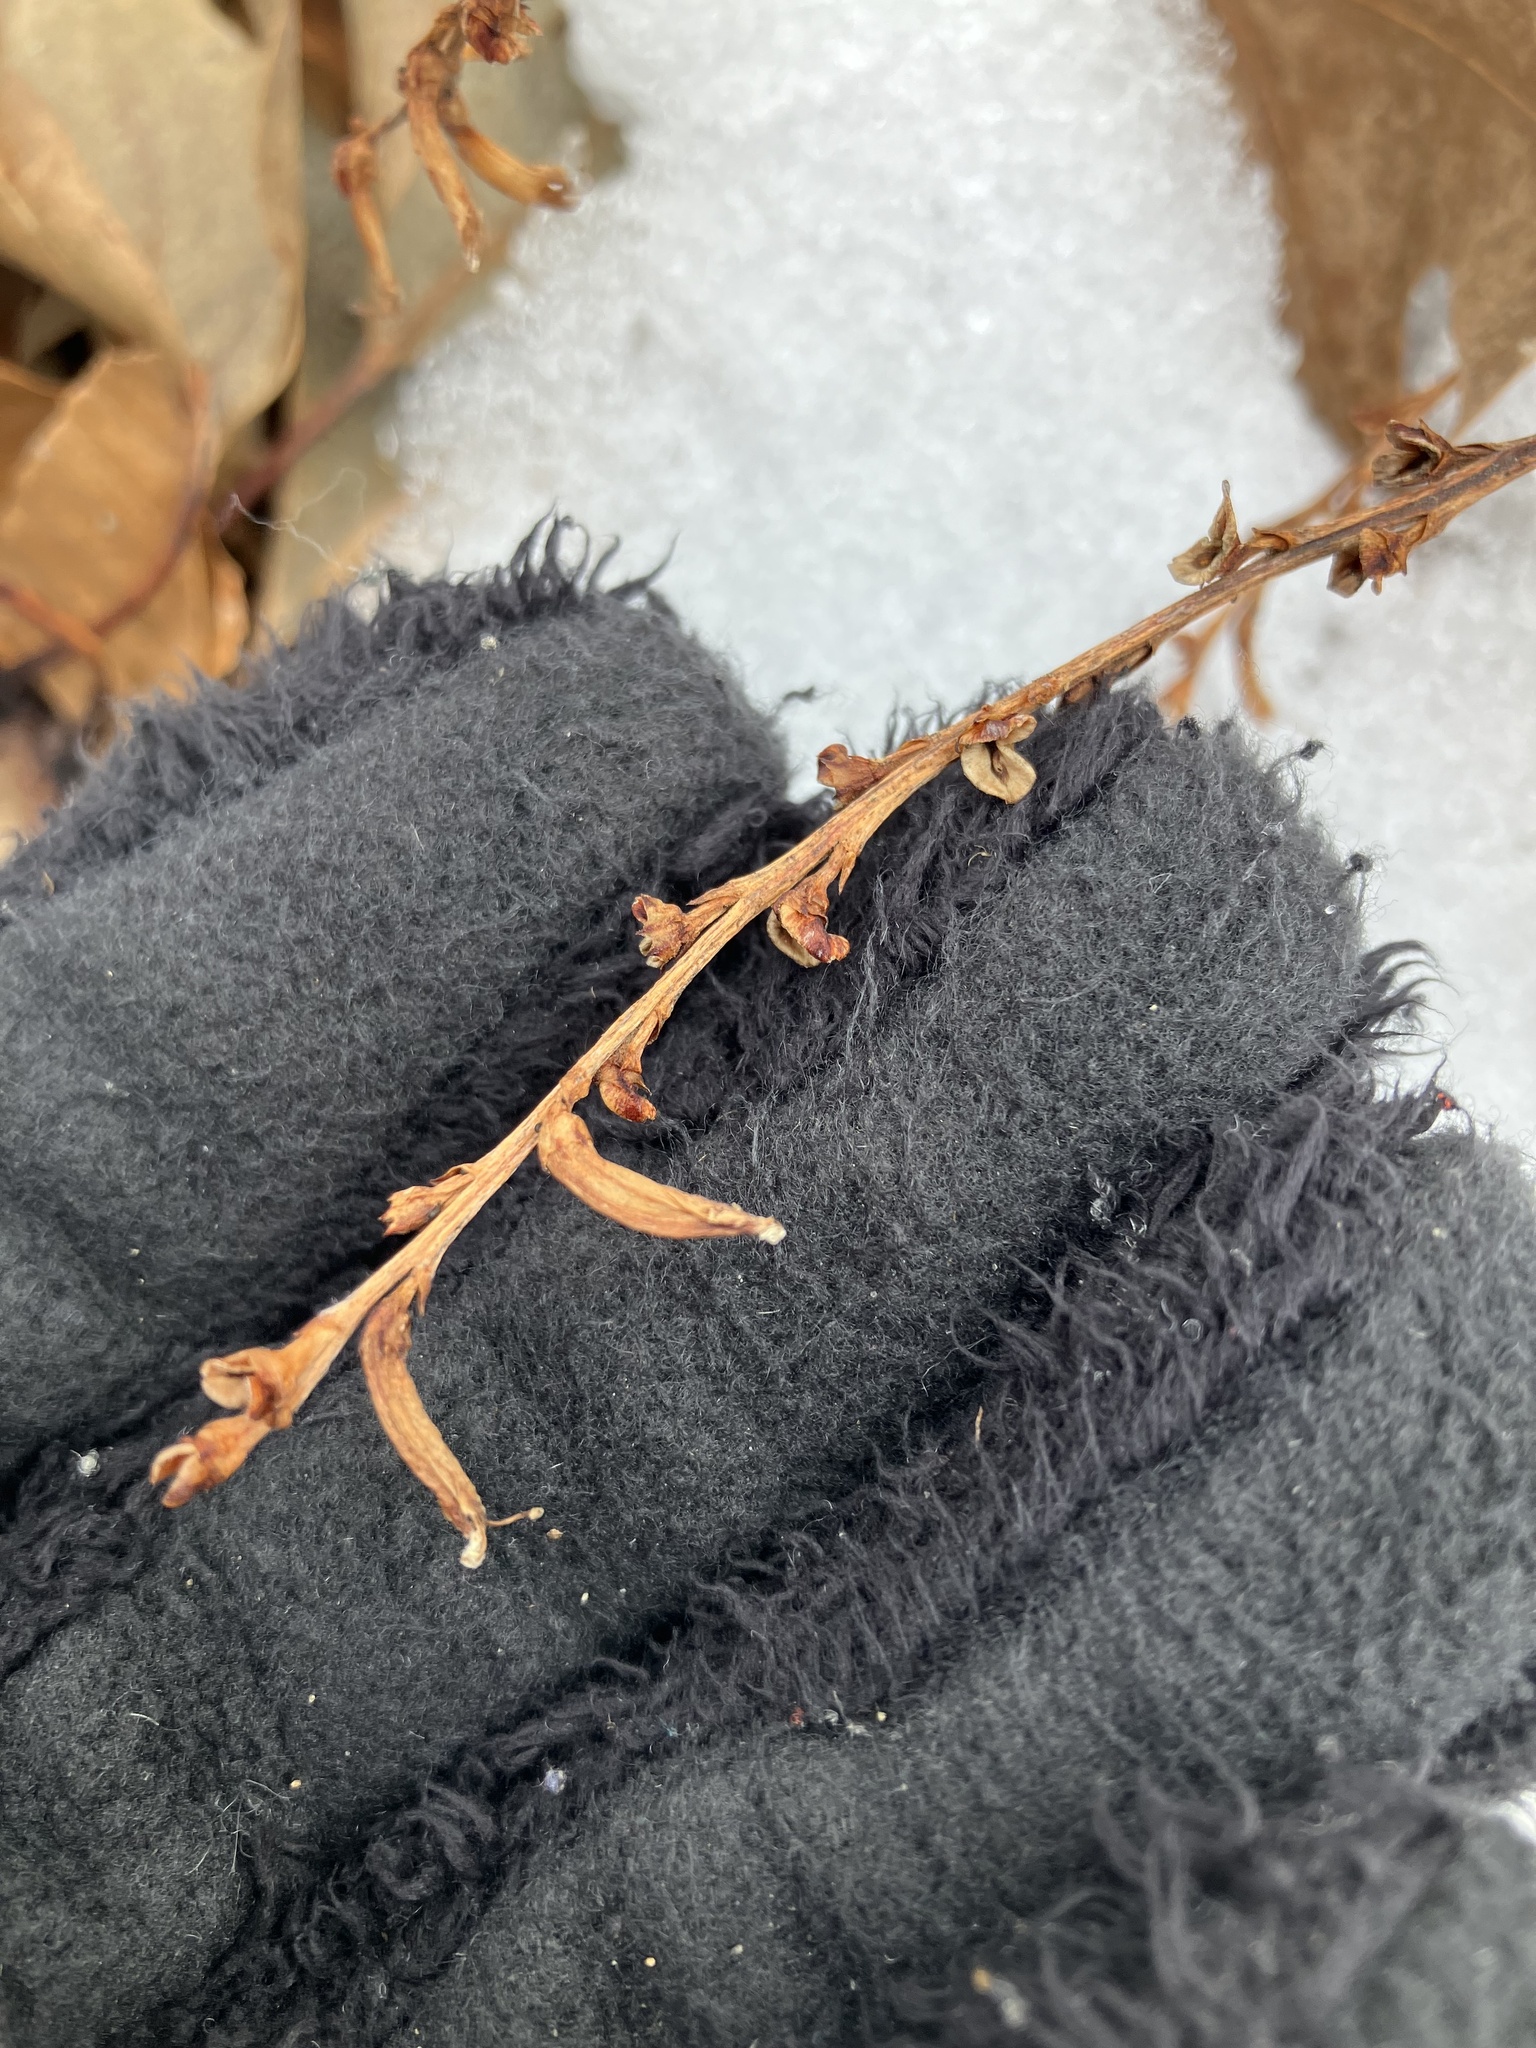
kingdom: Plantae
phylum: Tracheophyta
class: Magnoliopsida
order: Lamiales
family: Orobanchaceae
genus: Epifagus
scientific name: Epifagus virginiana
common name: Beechdrops
